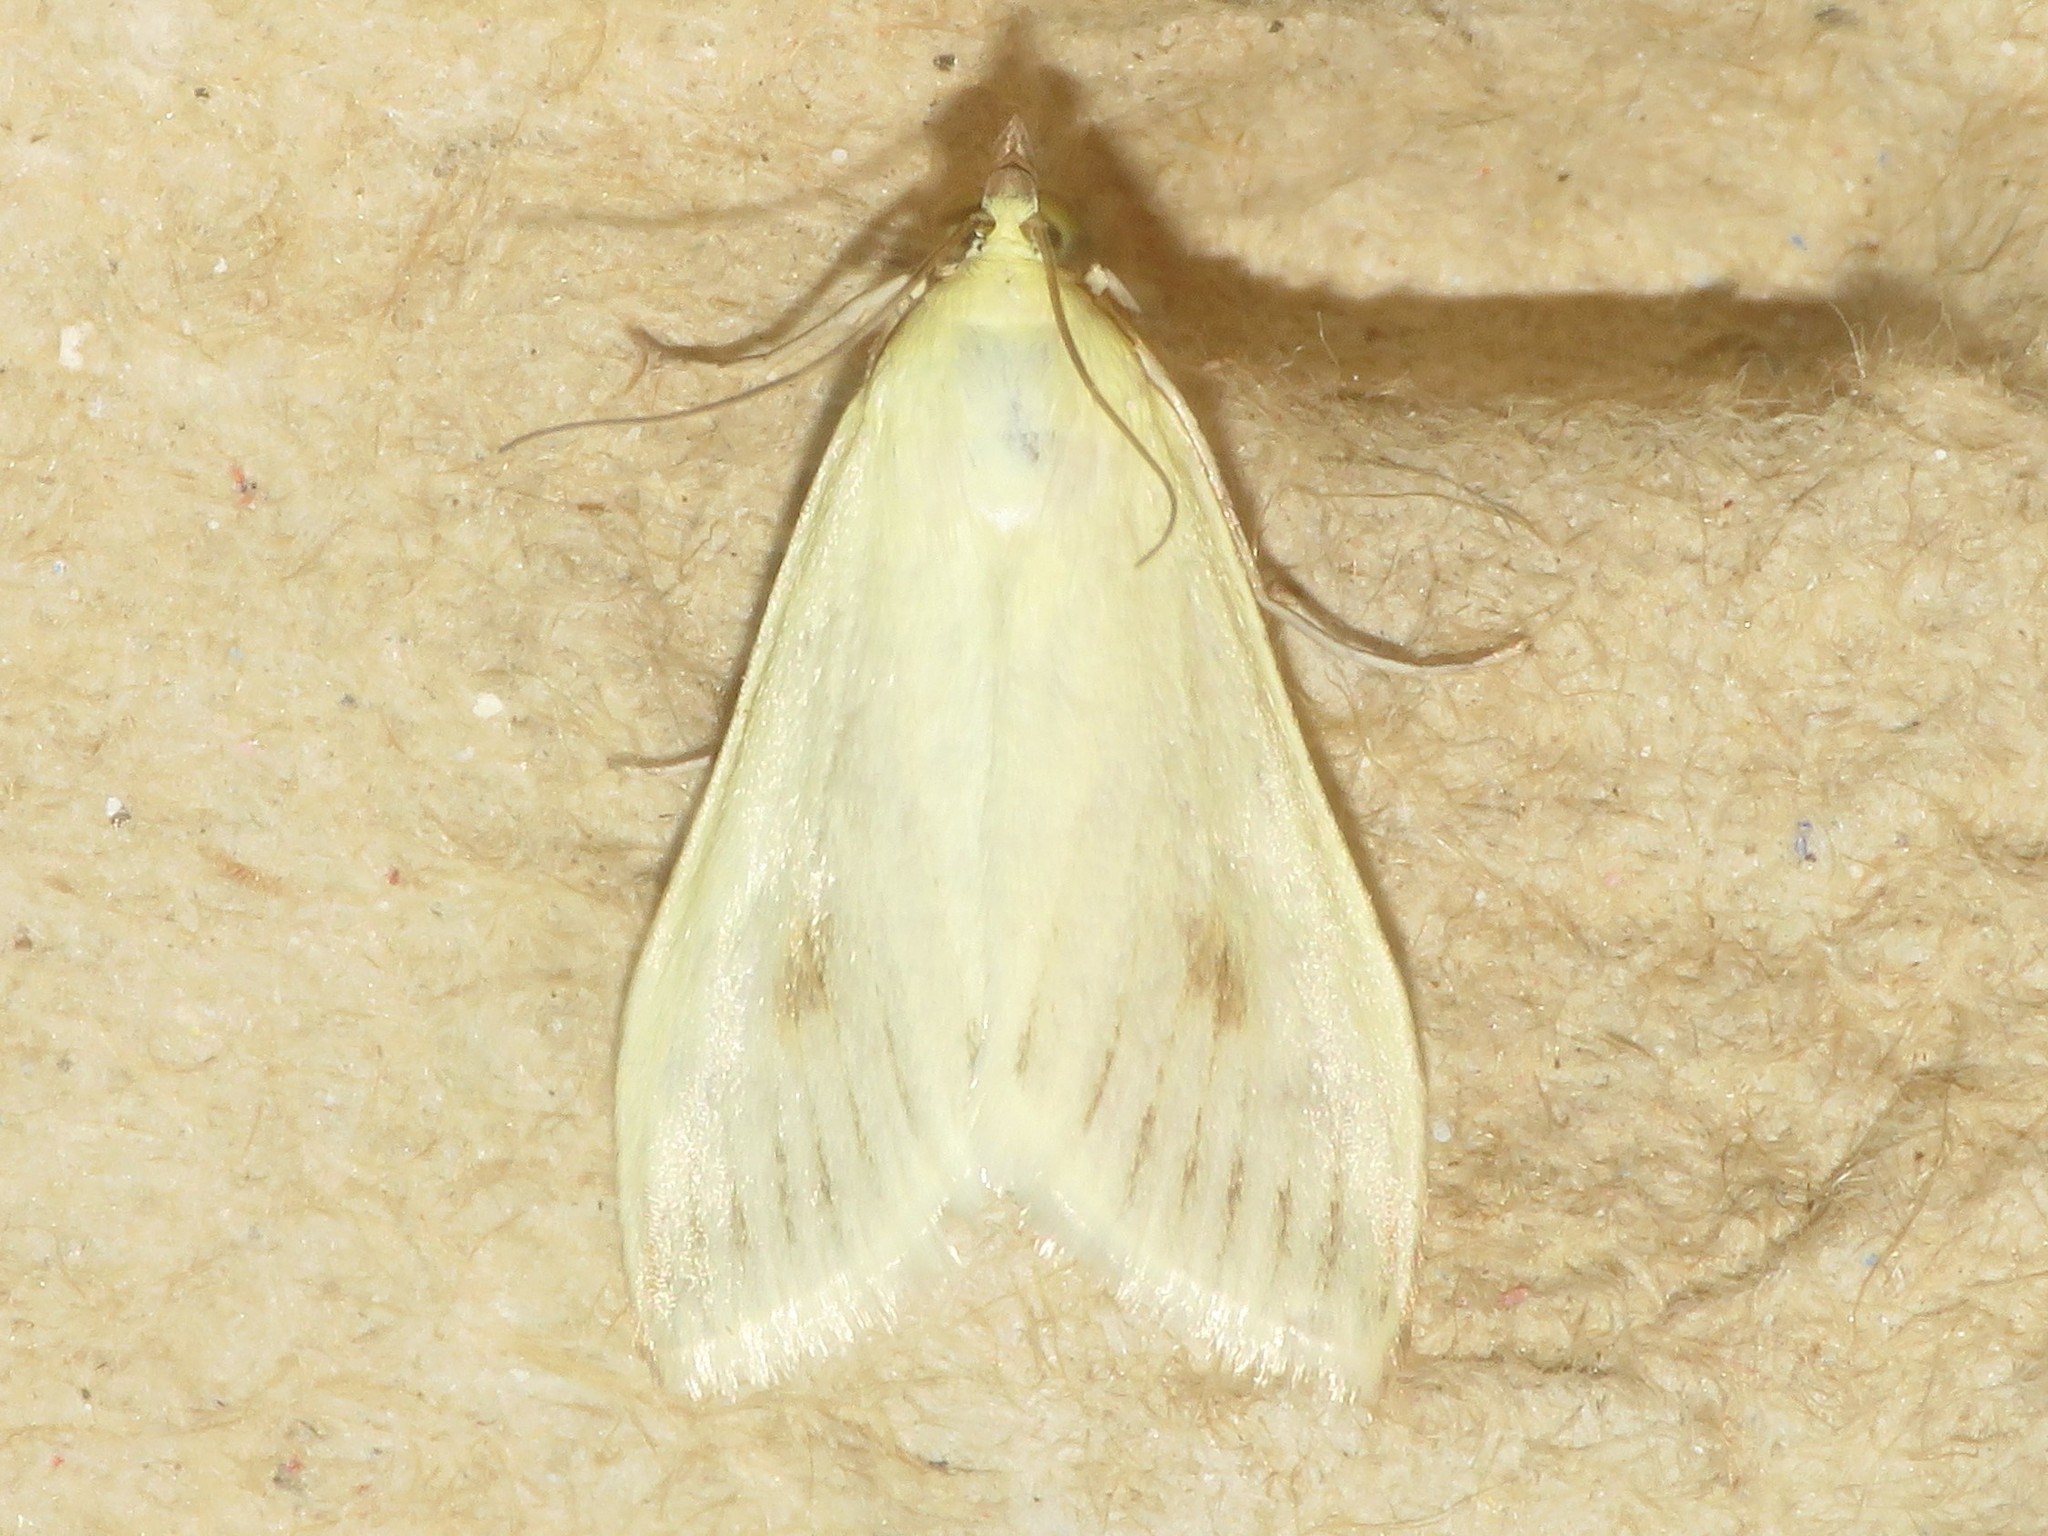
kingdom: Animalia
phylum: Arthropoda
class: Insecta
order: Lepidoptera
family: Crambidae
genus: Sitochroa
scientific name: Sitochroa palealis
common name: Greenish-yellow sitochroa moth
